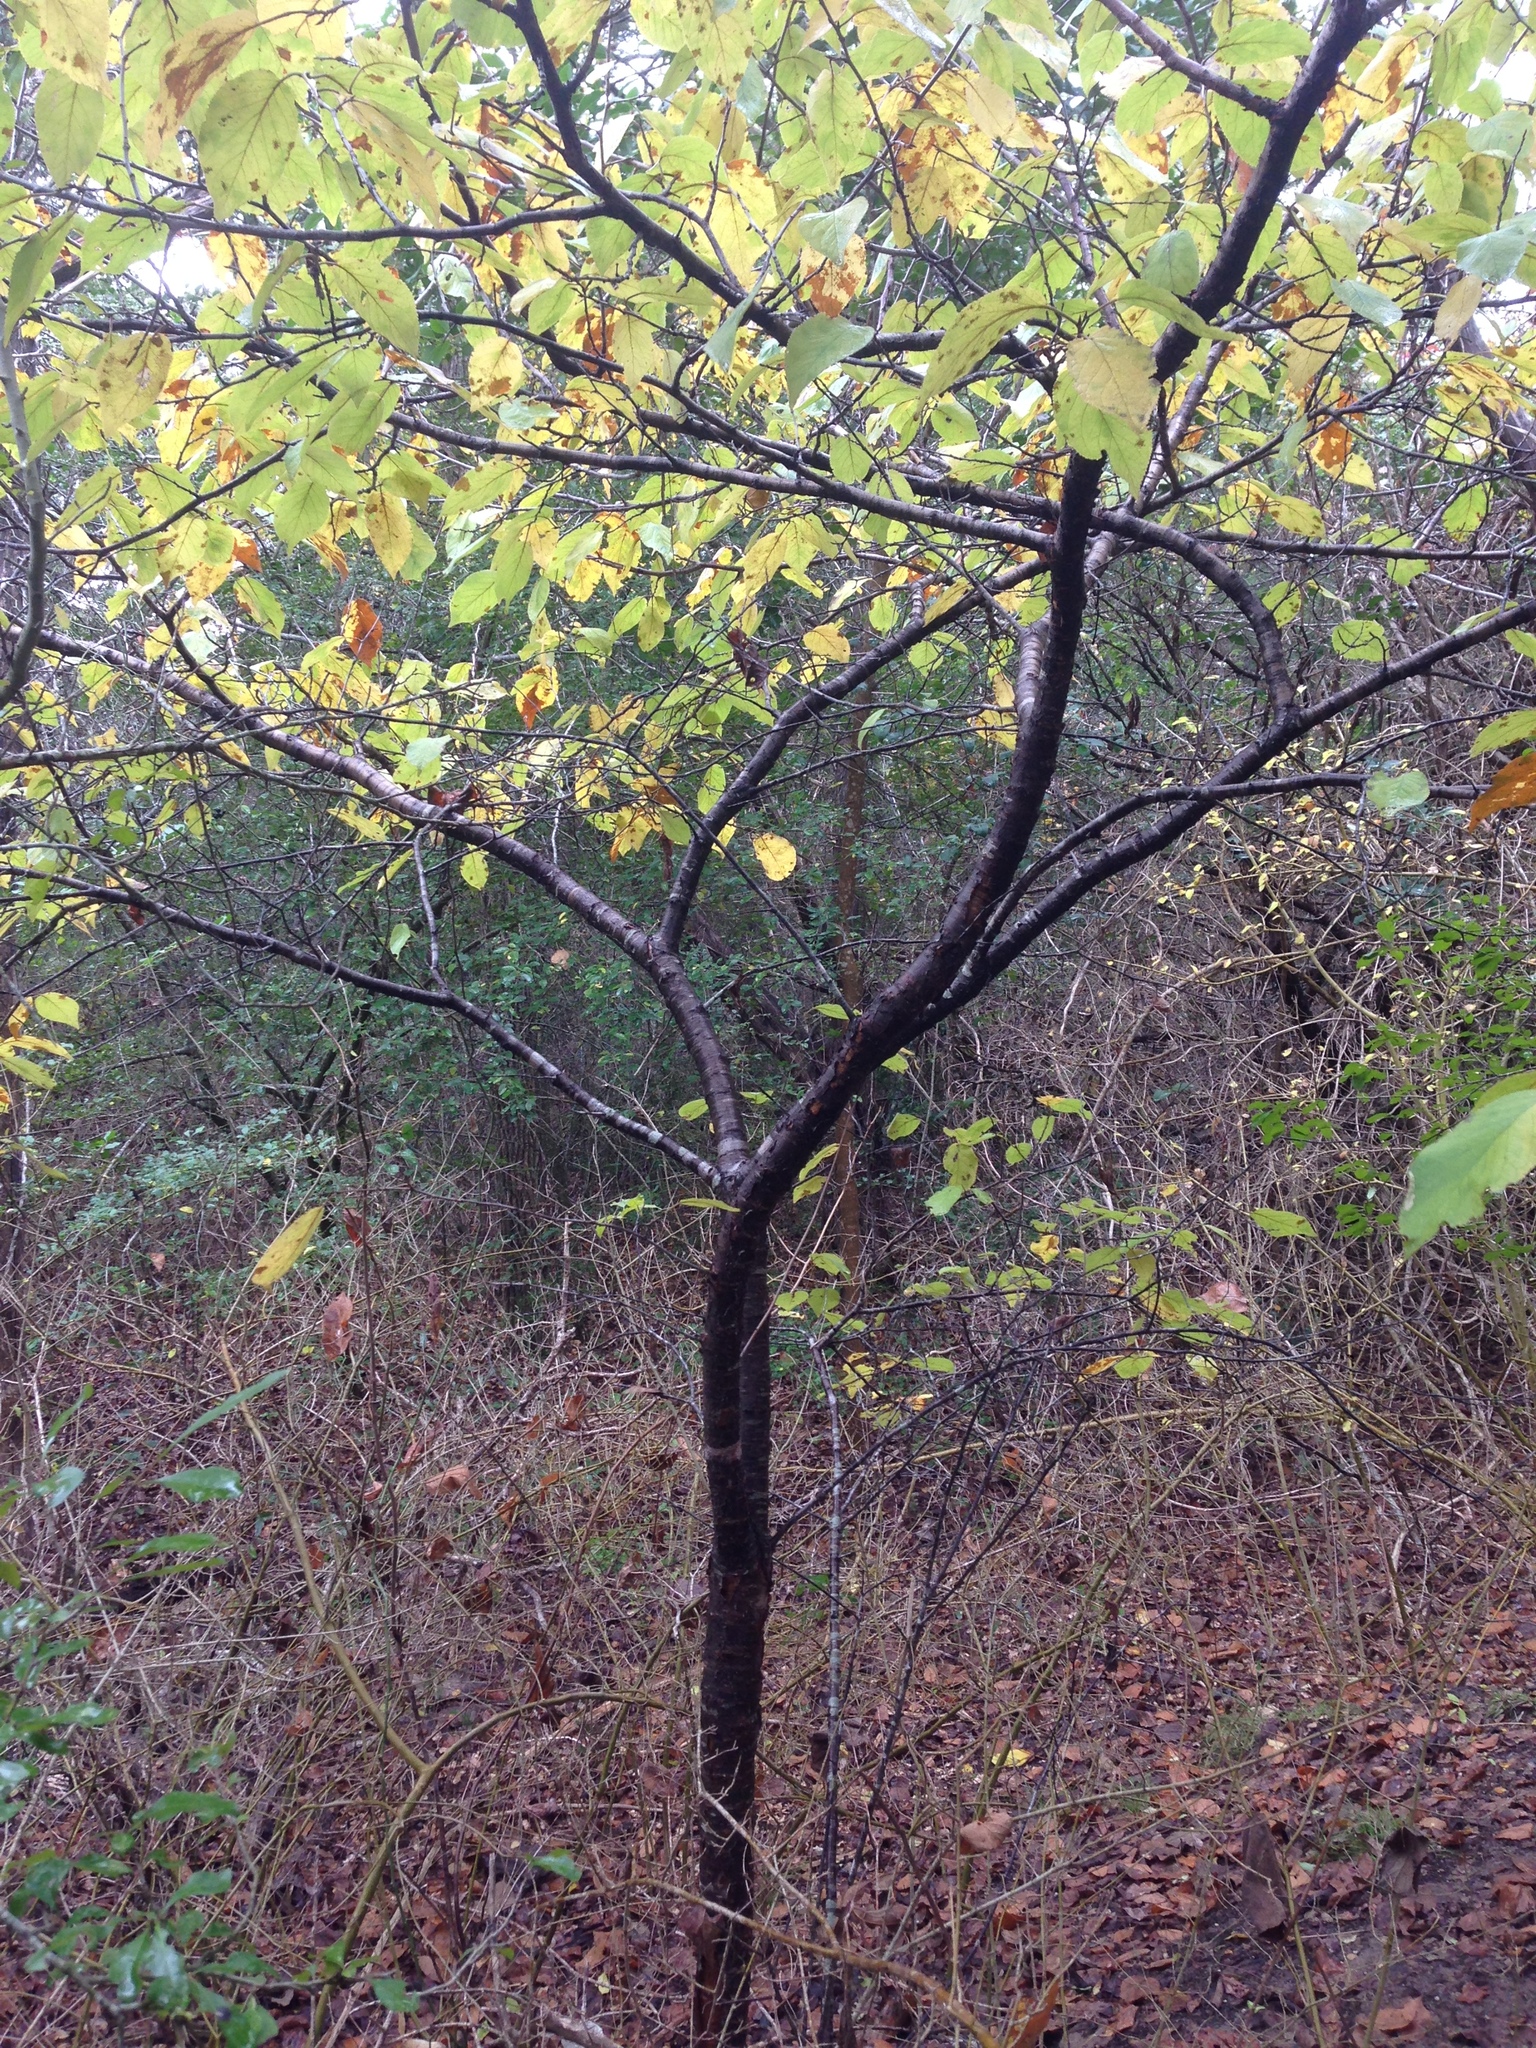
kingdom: Plantae
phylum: Tracheophyta
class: Magnoliopsida
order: Rosales
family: Rosaceae
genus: Prunus
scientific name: Prunus serotina
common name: Black cherry
